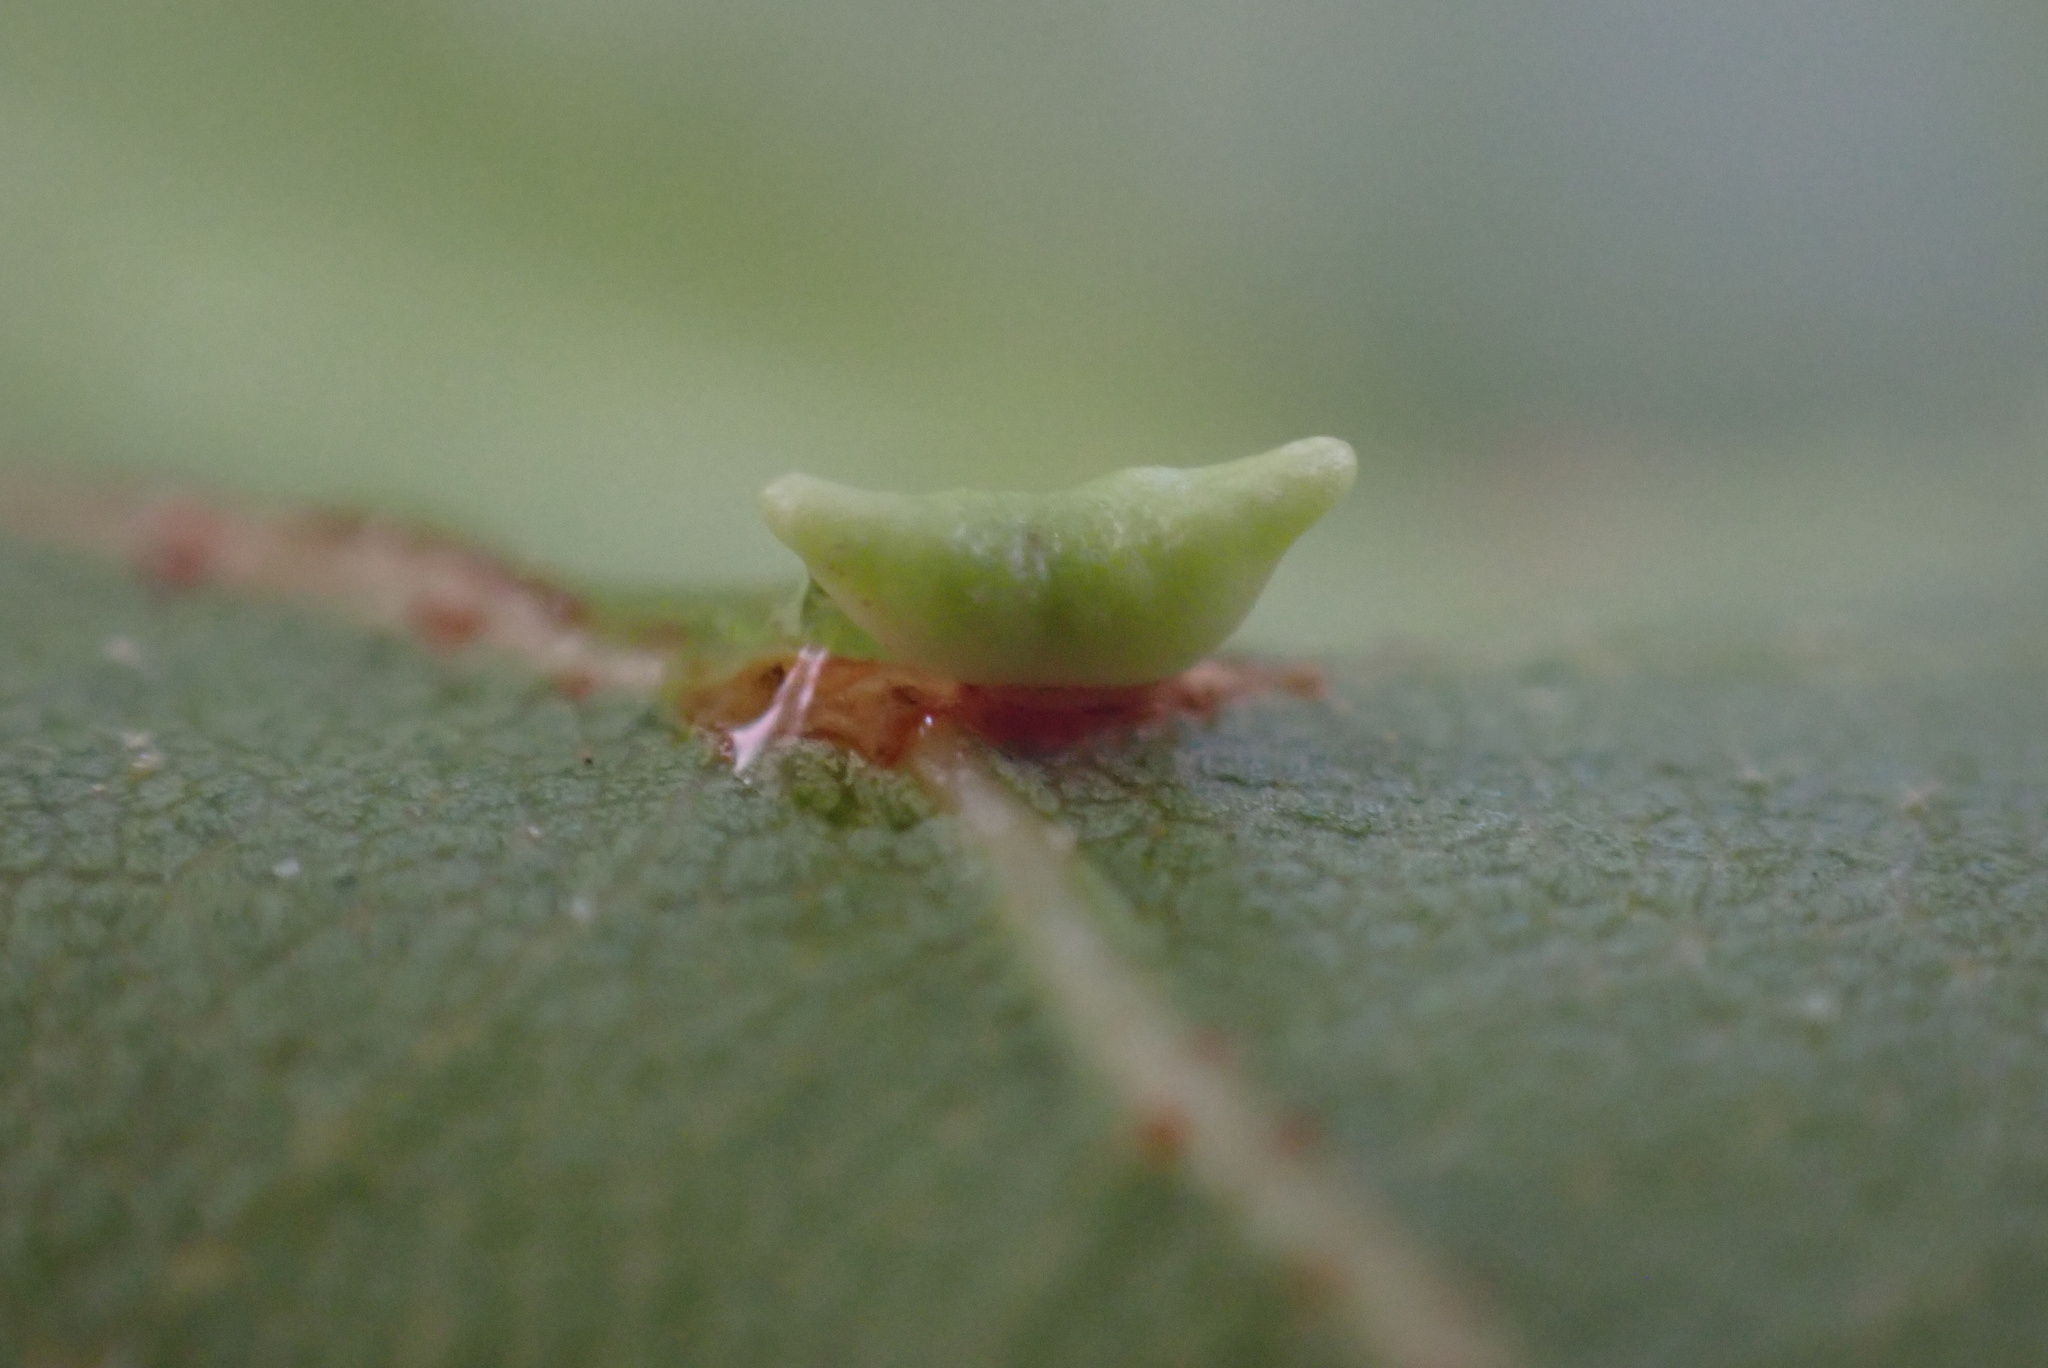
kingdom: Animalia
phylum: Arthropoda
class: Insecta
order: Hymenoptera
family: Cynipidae
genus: Dryocosmus
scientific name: Dryocosmus
